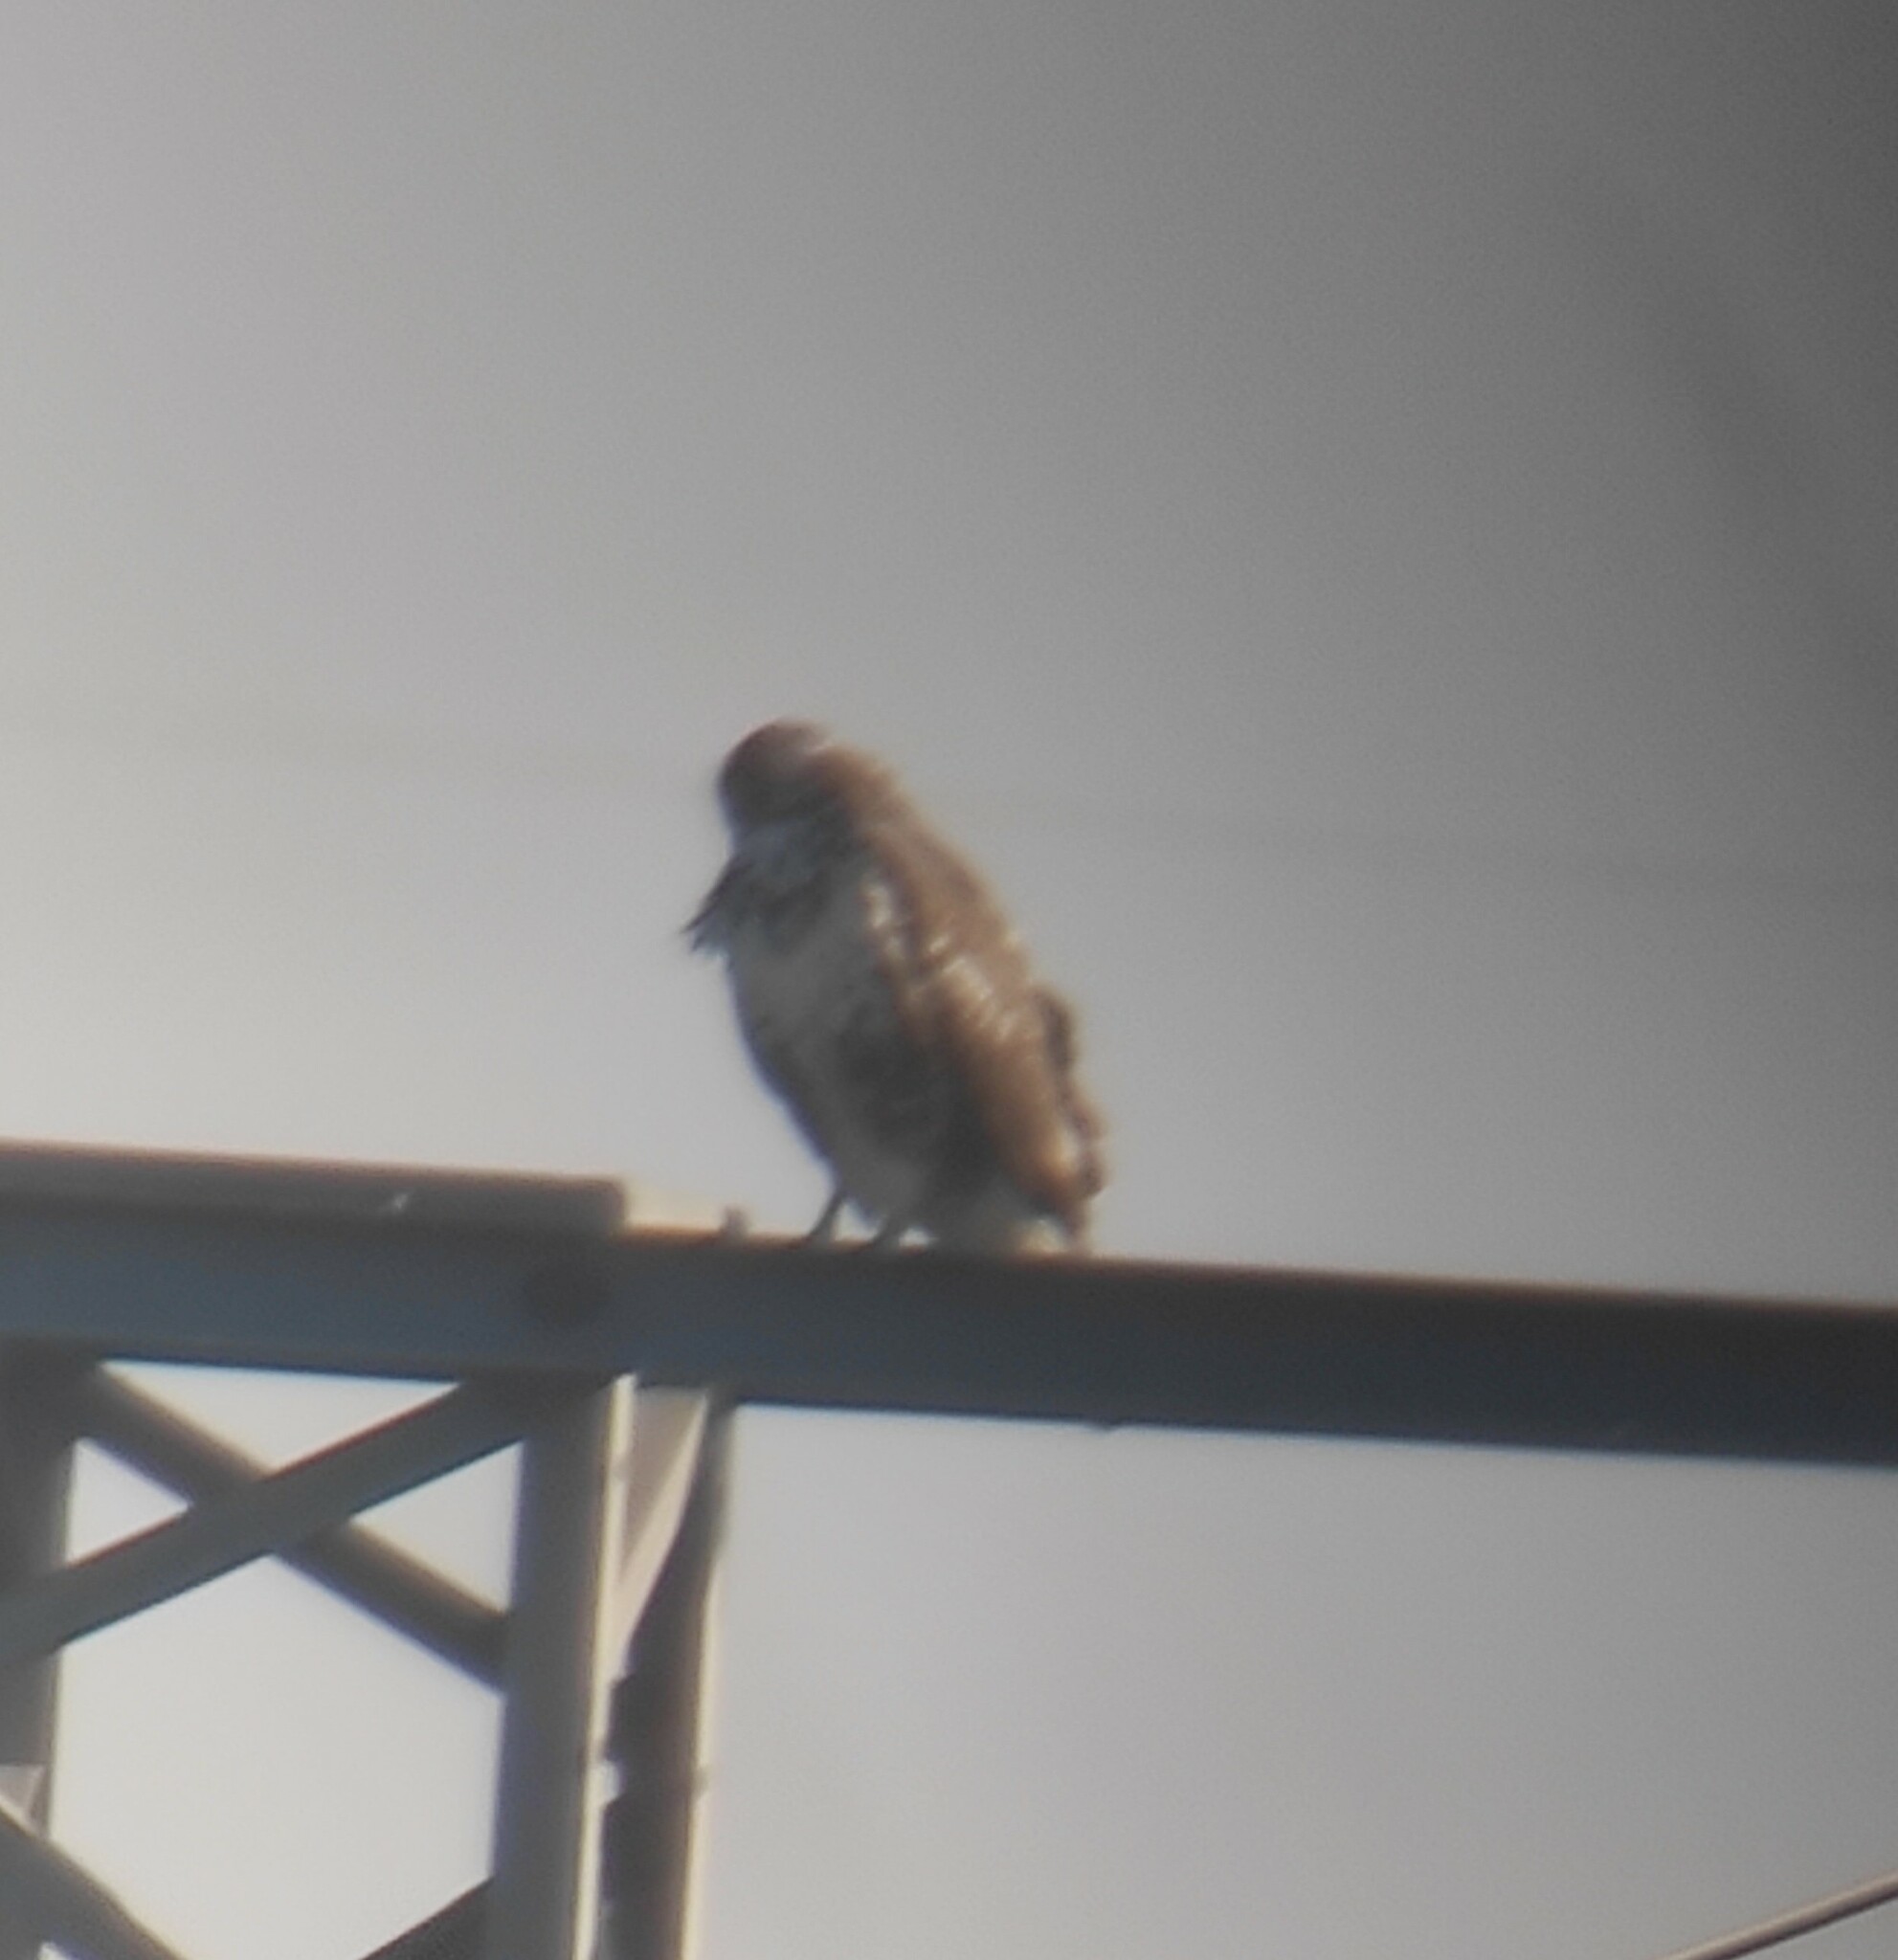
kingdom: Animalia
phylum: Chordata
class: Aves
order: Accipitriformes
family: Accipitridae
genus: Buteo
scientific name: Buteo buteo
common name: Common buzzard
